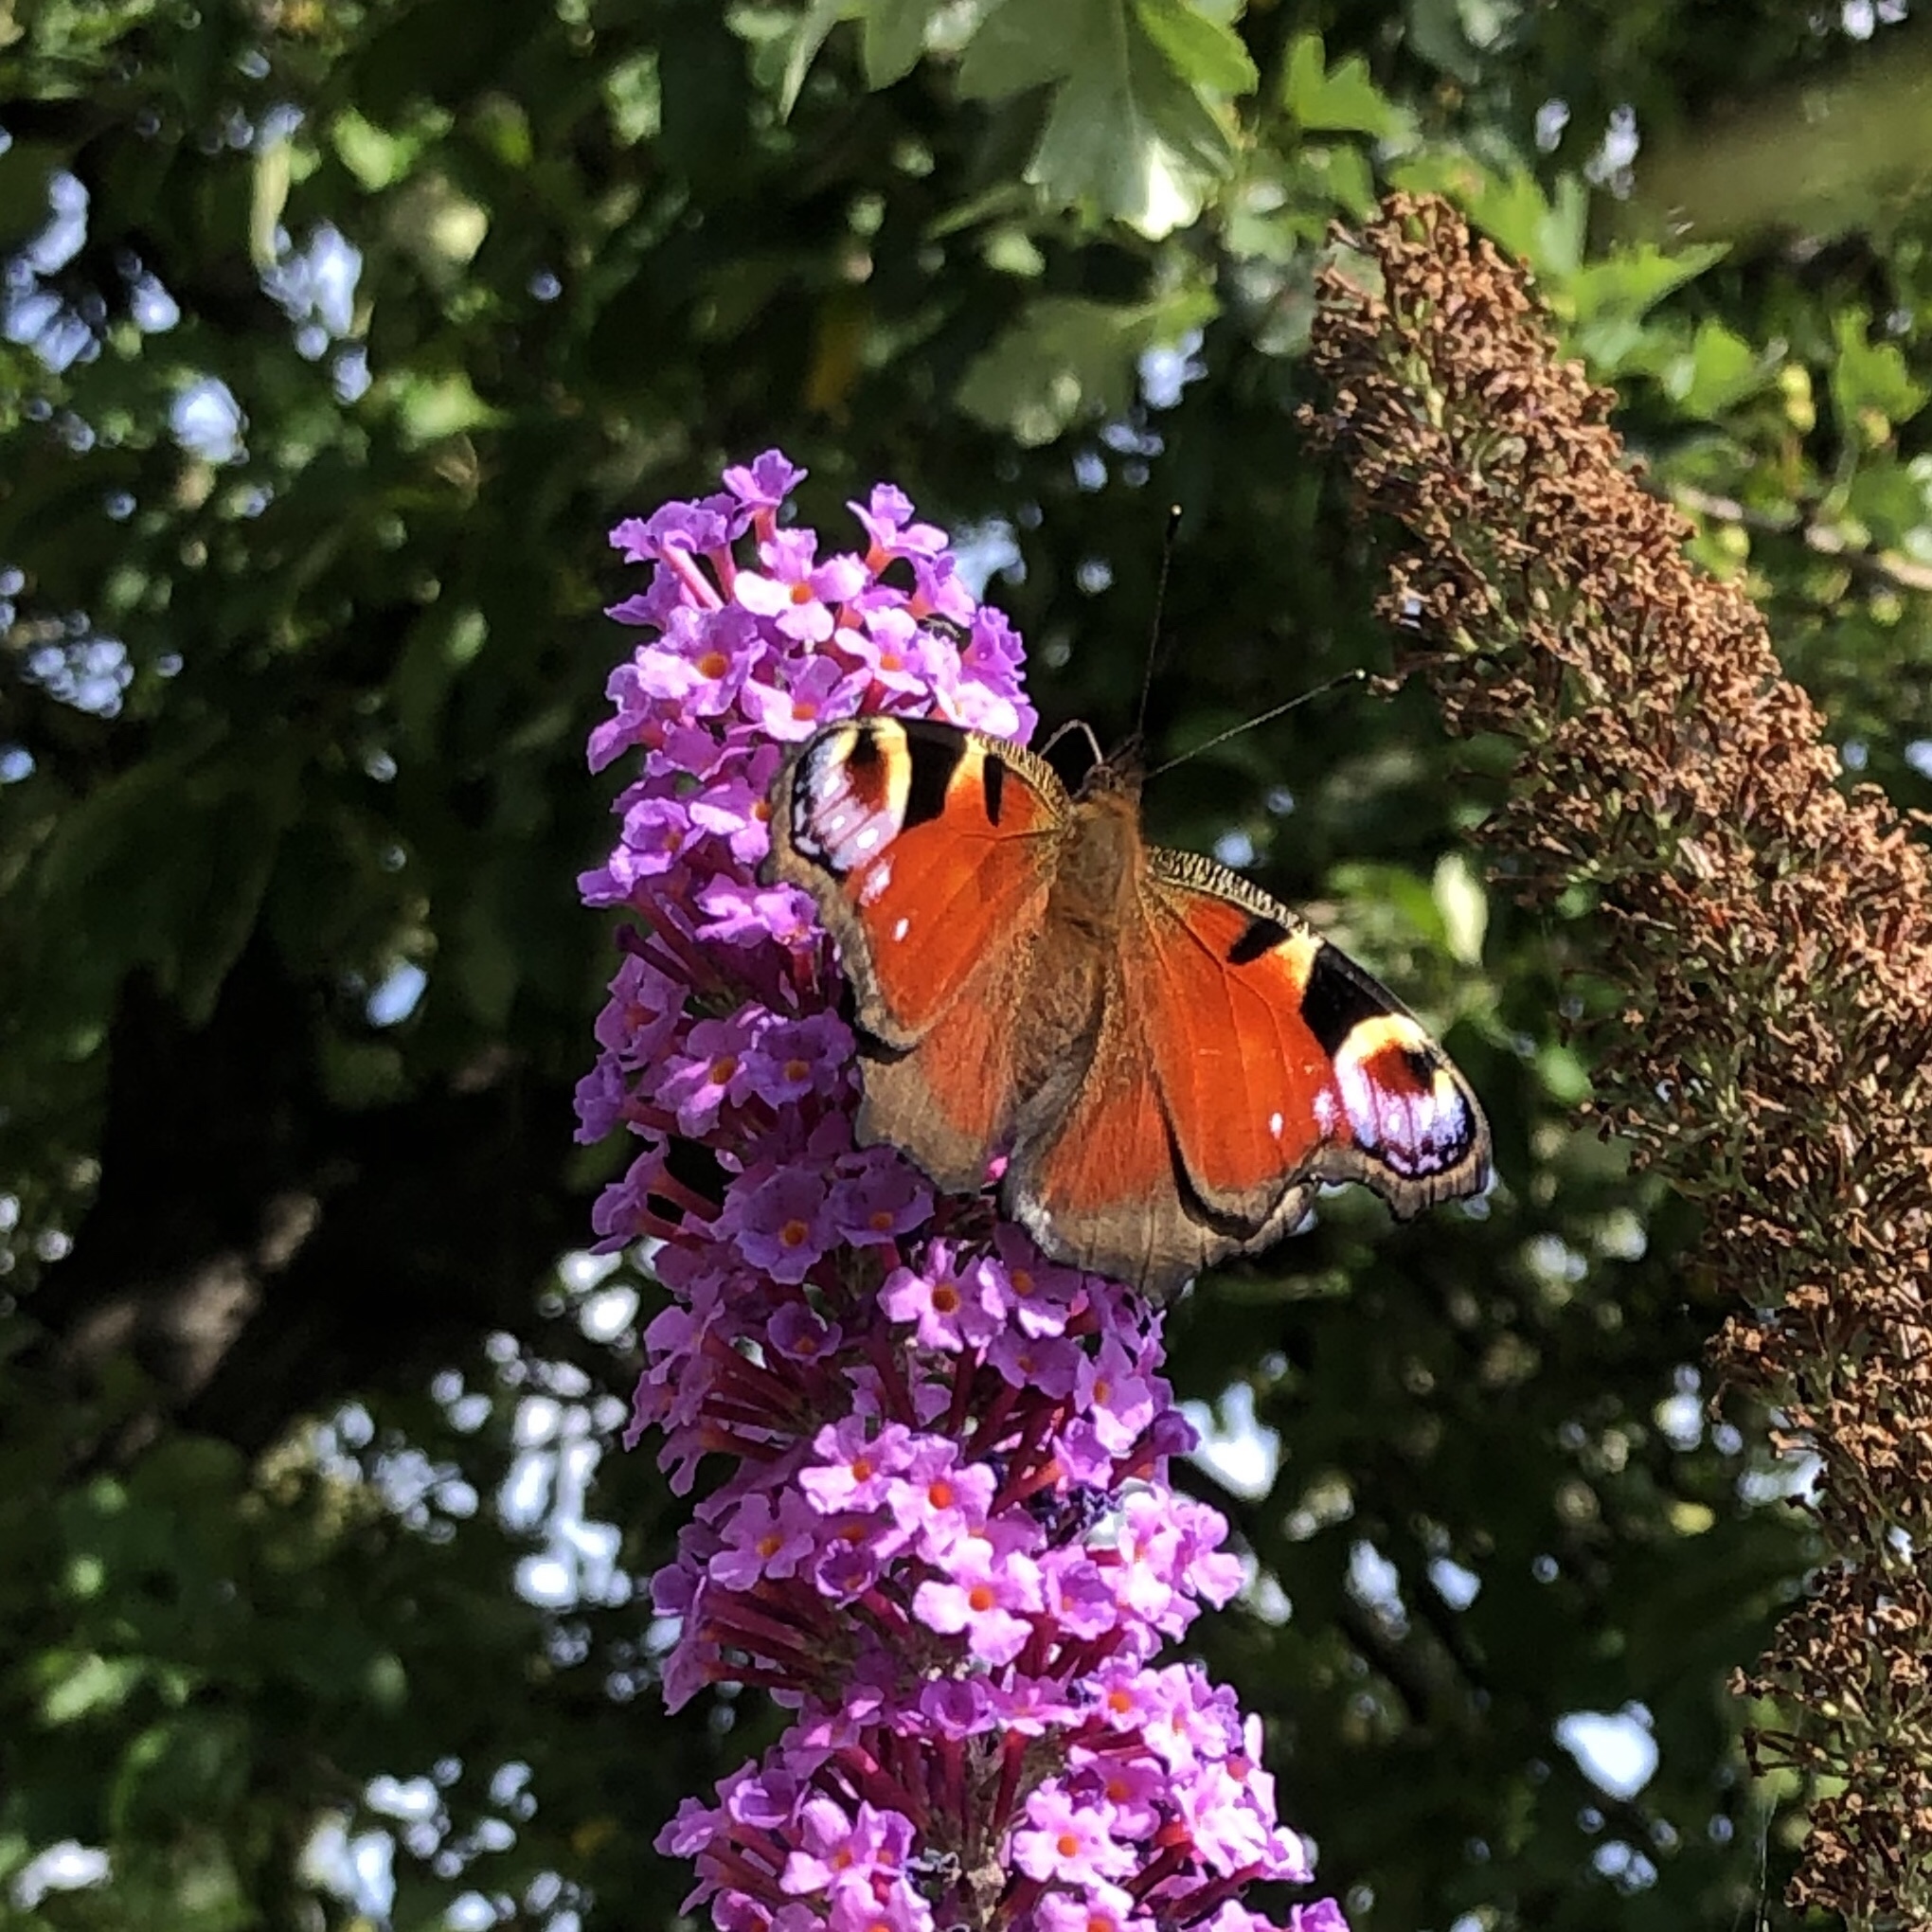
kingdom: Animalia
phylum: Arthropoda
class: Insecta
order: Lepidoptera
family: Nymphalidae
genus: Aglais
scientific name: Aglais io
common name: Peacock
